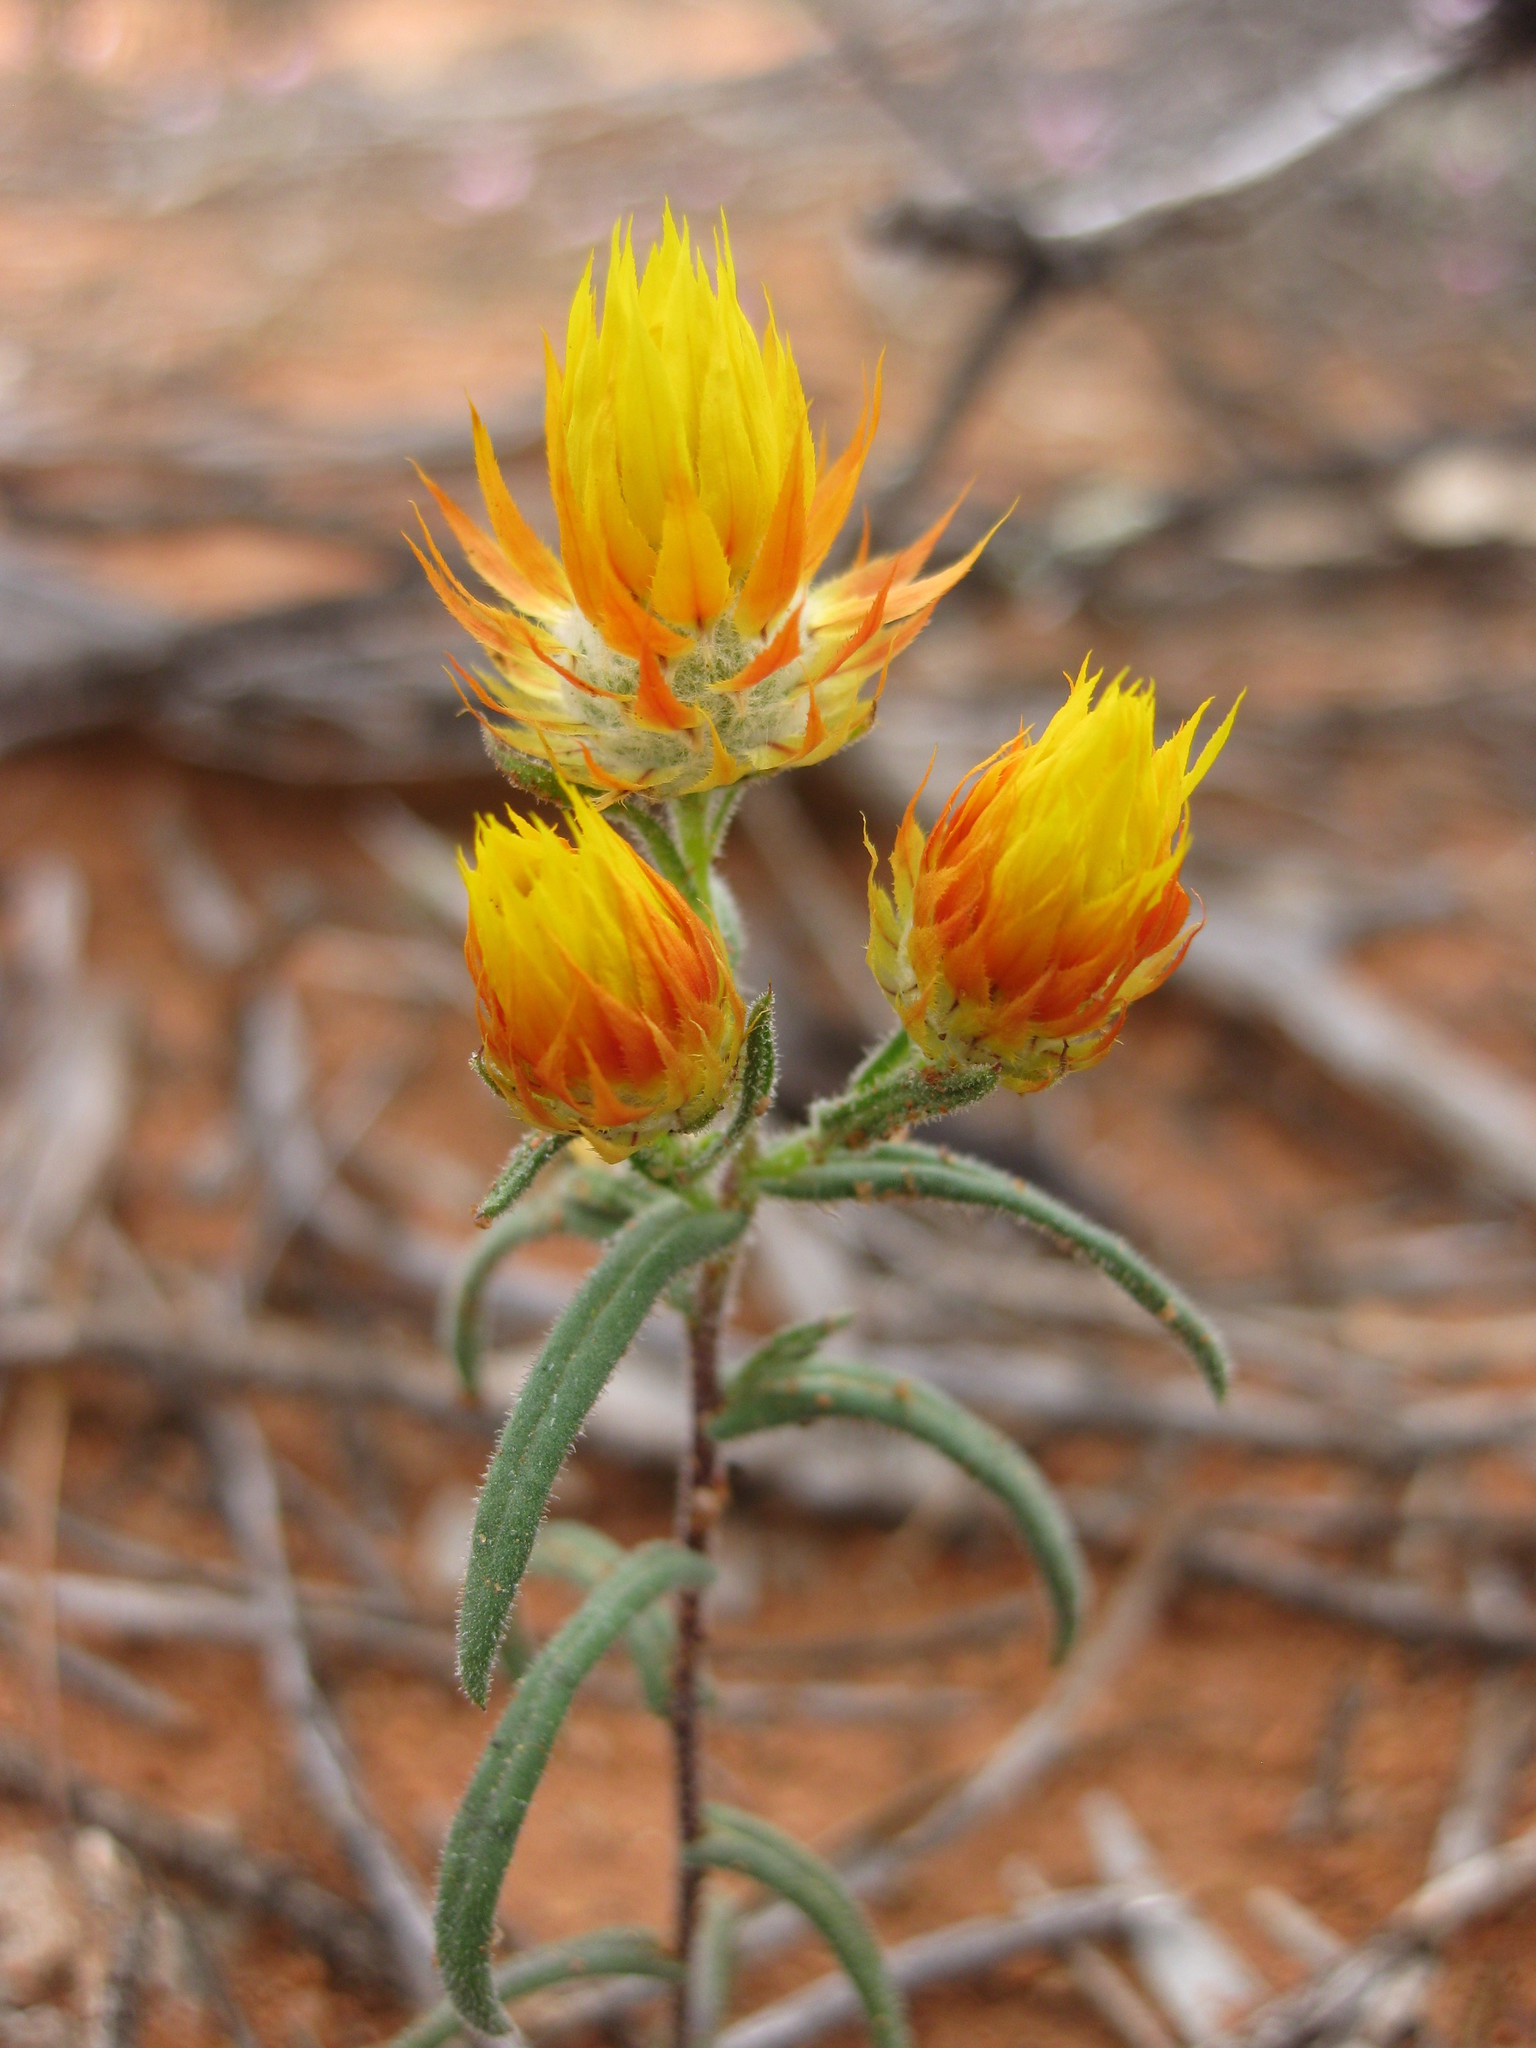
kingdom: Plantae
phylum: Tracheophyta
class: Magnoliopsida
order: Asterales
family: Asteraceae
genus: Waitzia
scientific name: Waitzia acuminata
